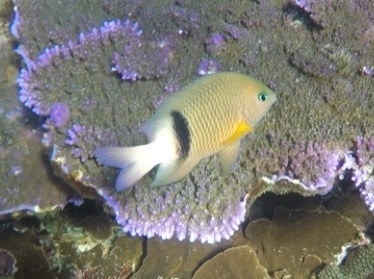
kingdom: Animalia
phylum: Chordata
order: Perciformes
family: Pomacentridae
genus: Plectroglyphidodon
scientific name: Plectroglyphidodon dickii
